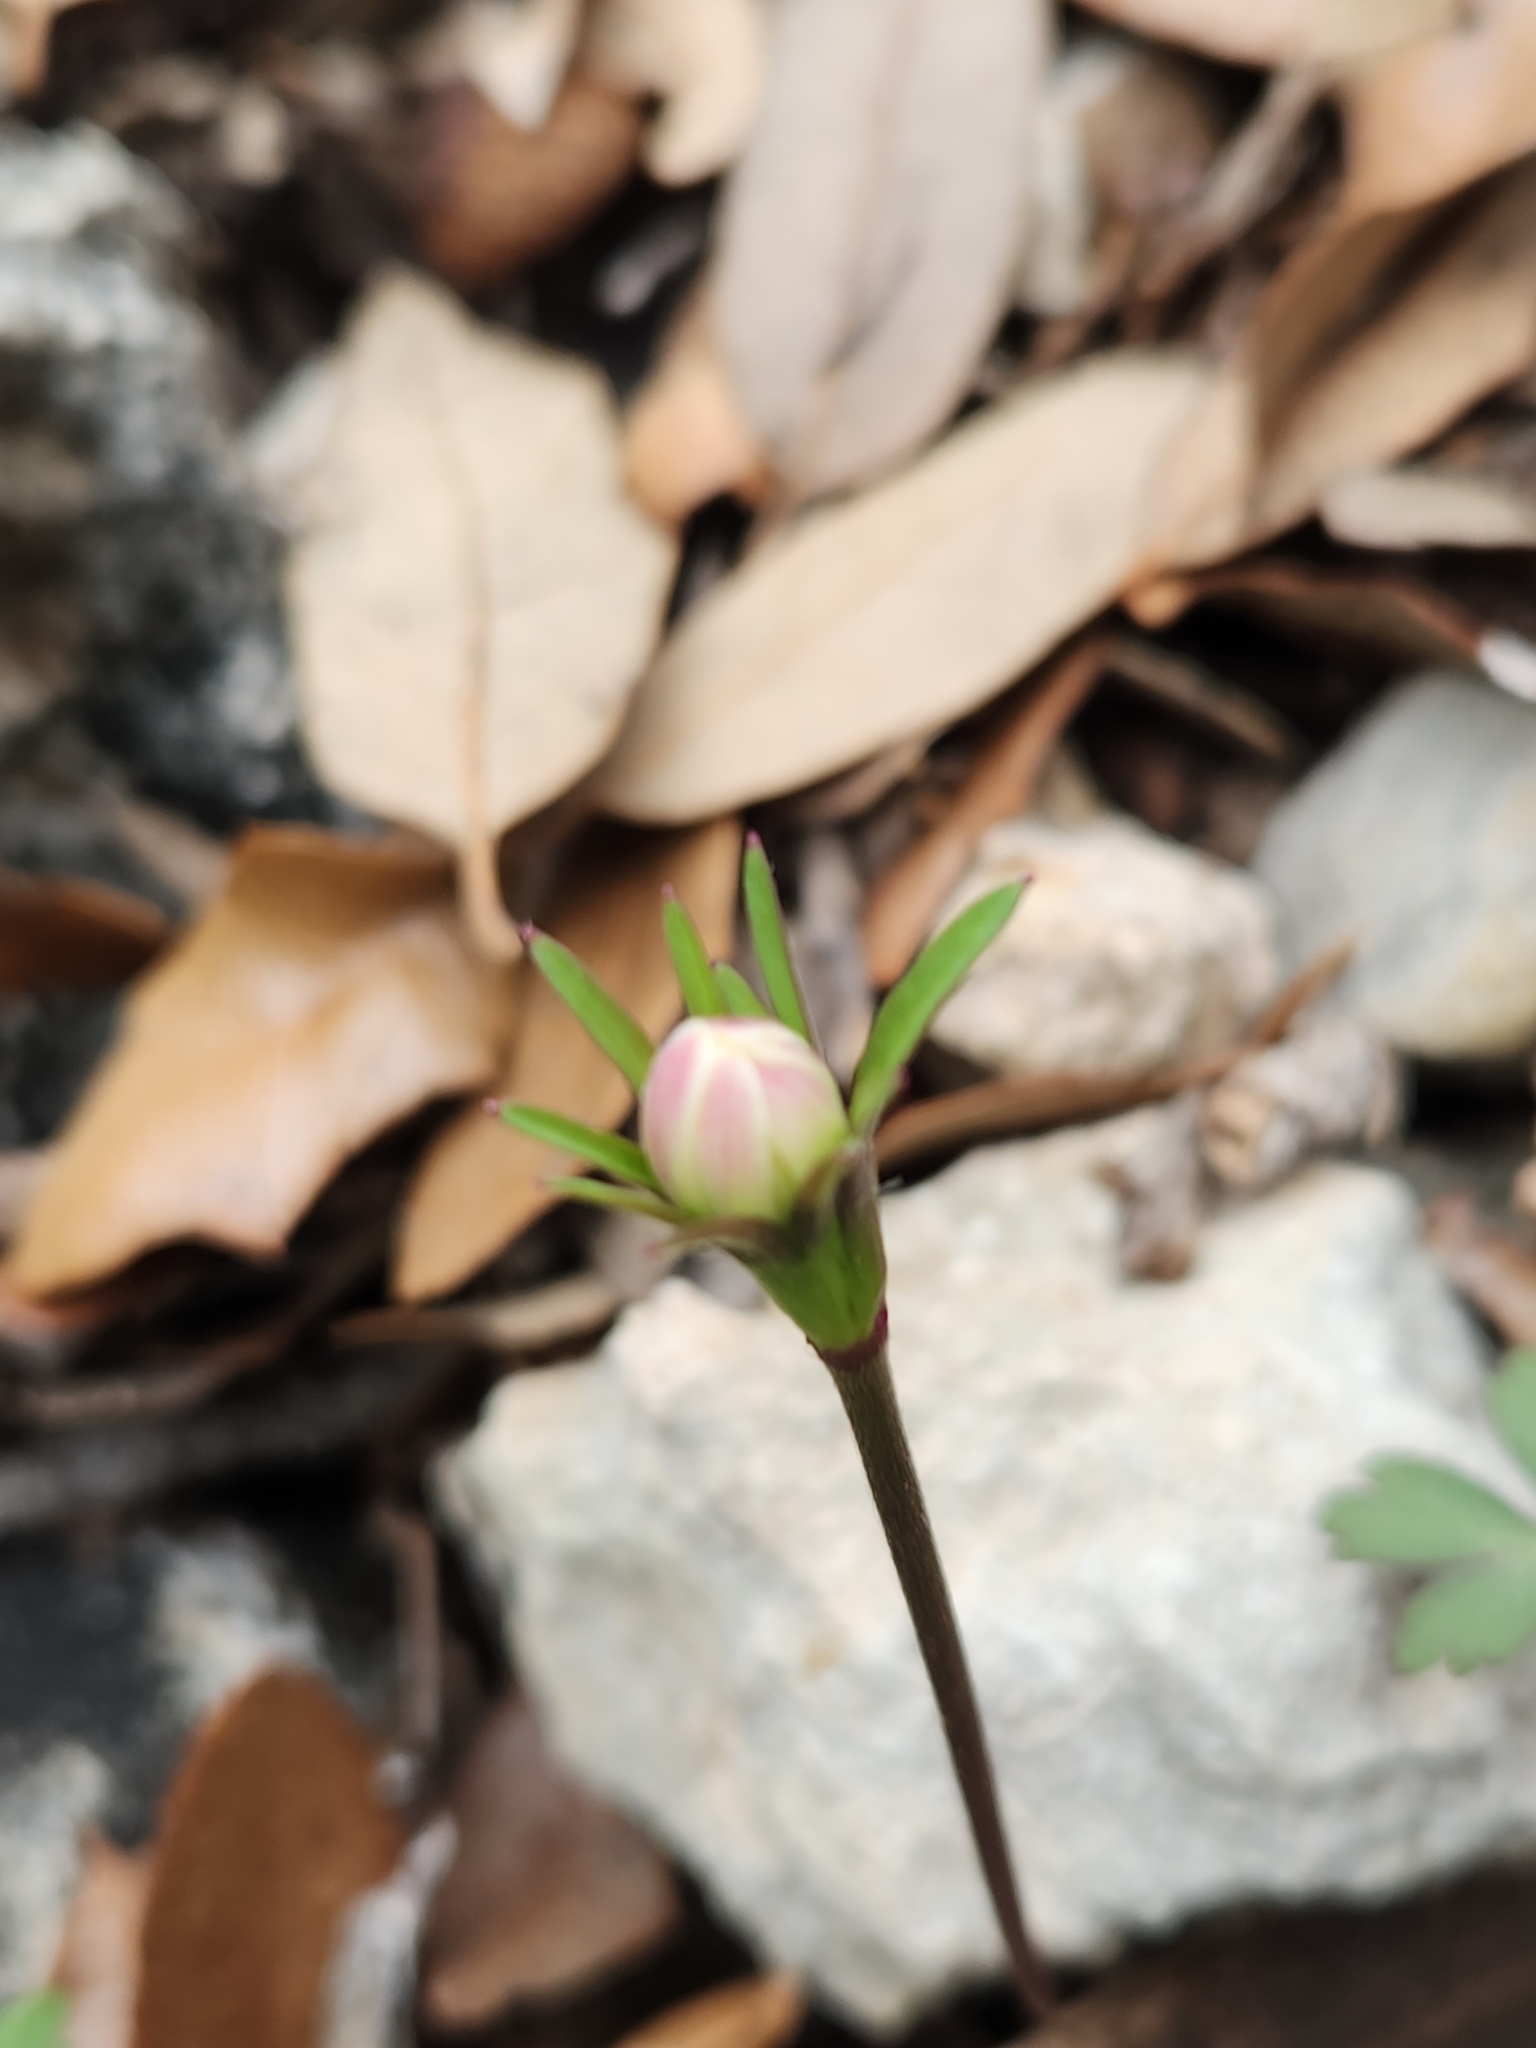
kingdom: Plantae
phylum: Tracheophyta
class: Magnoliopsida
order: Ranunculales
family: Ranunculaceae
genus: Anemone
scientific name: Anemone edwardsiana
